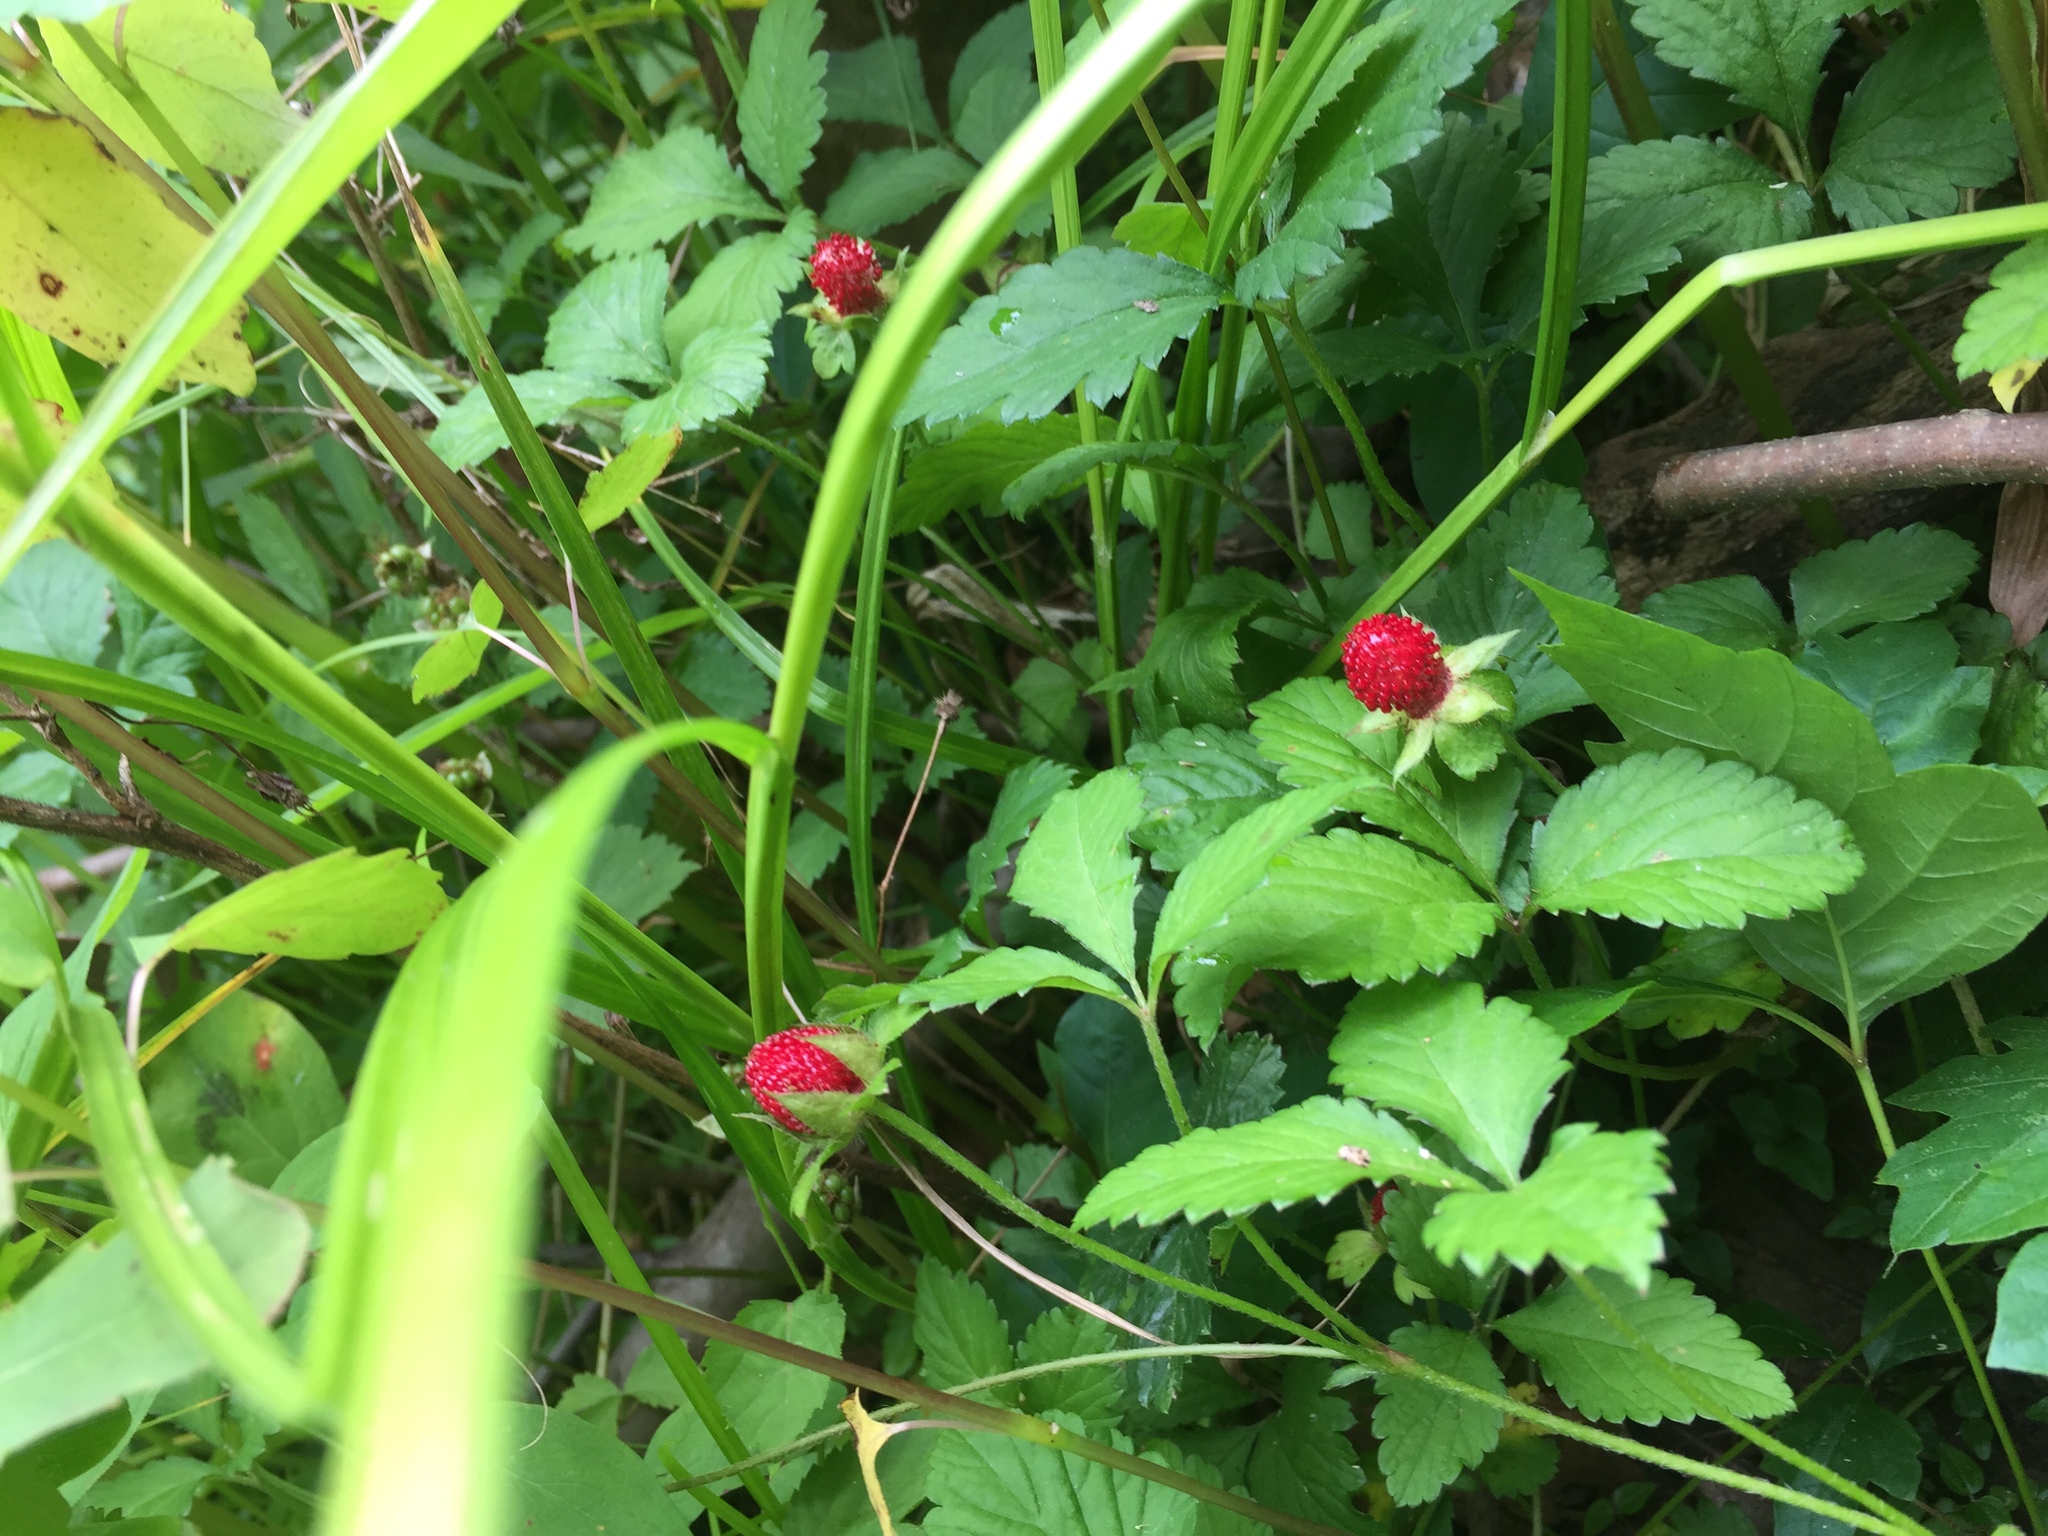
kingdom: Plantae
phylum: Tracheophyta
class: Magnoliopsida
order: Rosales
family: Rosaceae
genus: Potentilla
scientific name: Potentilla indica
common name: Yellow-flowered strawberry
